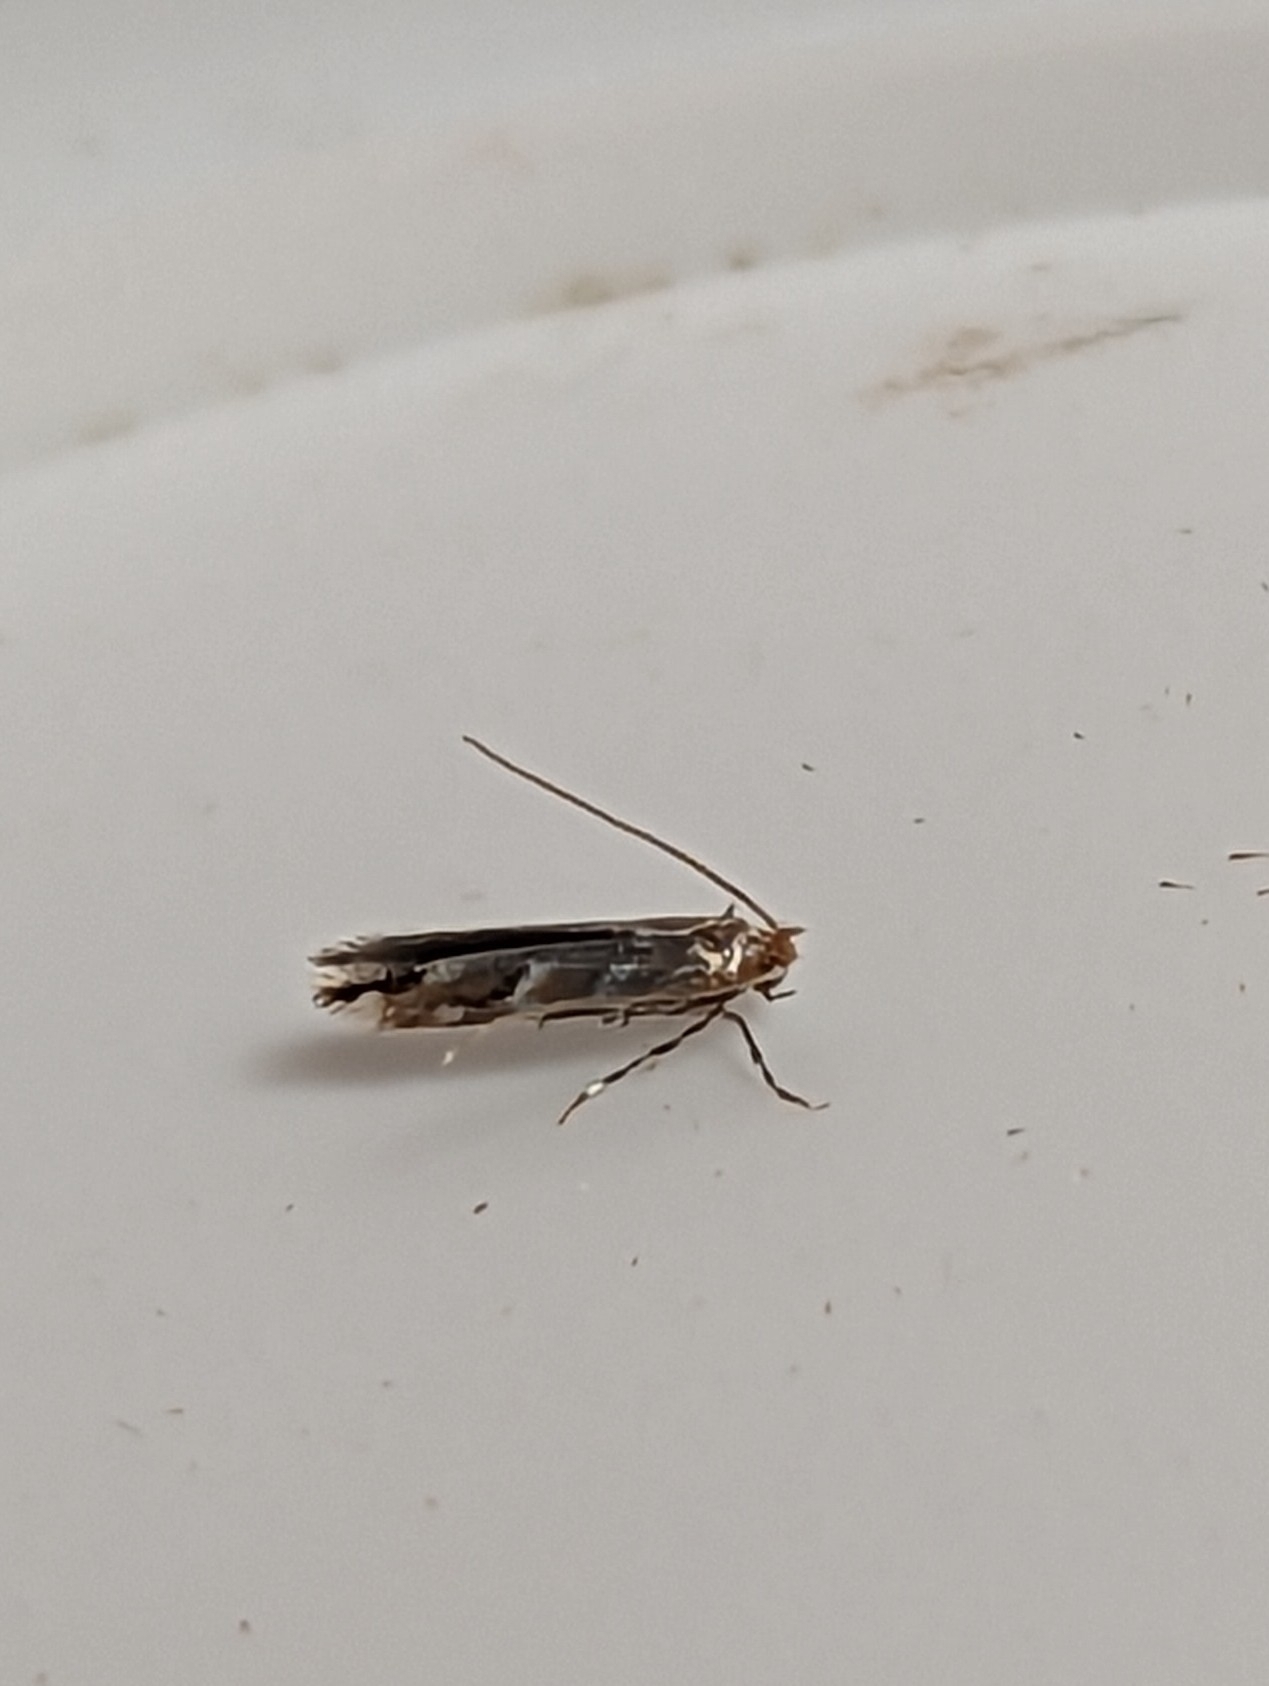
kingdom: Animalia
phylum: Arthropoda
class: Insecta
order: Lepidoptera
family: Gracillariidae
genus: Cameraria
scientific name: Cameraria ohridella
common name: Horse-chestnut leaf-miner
